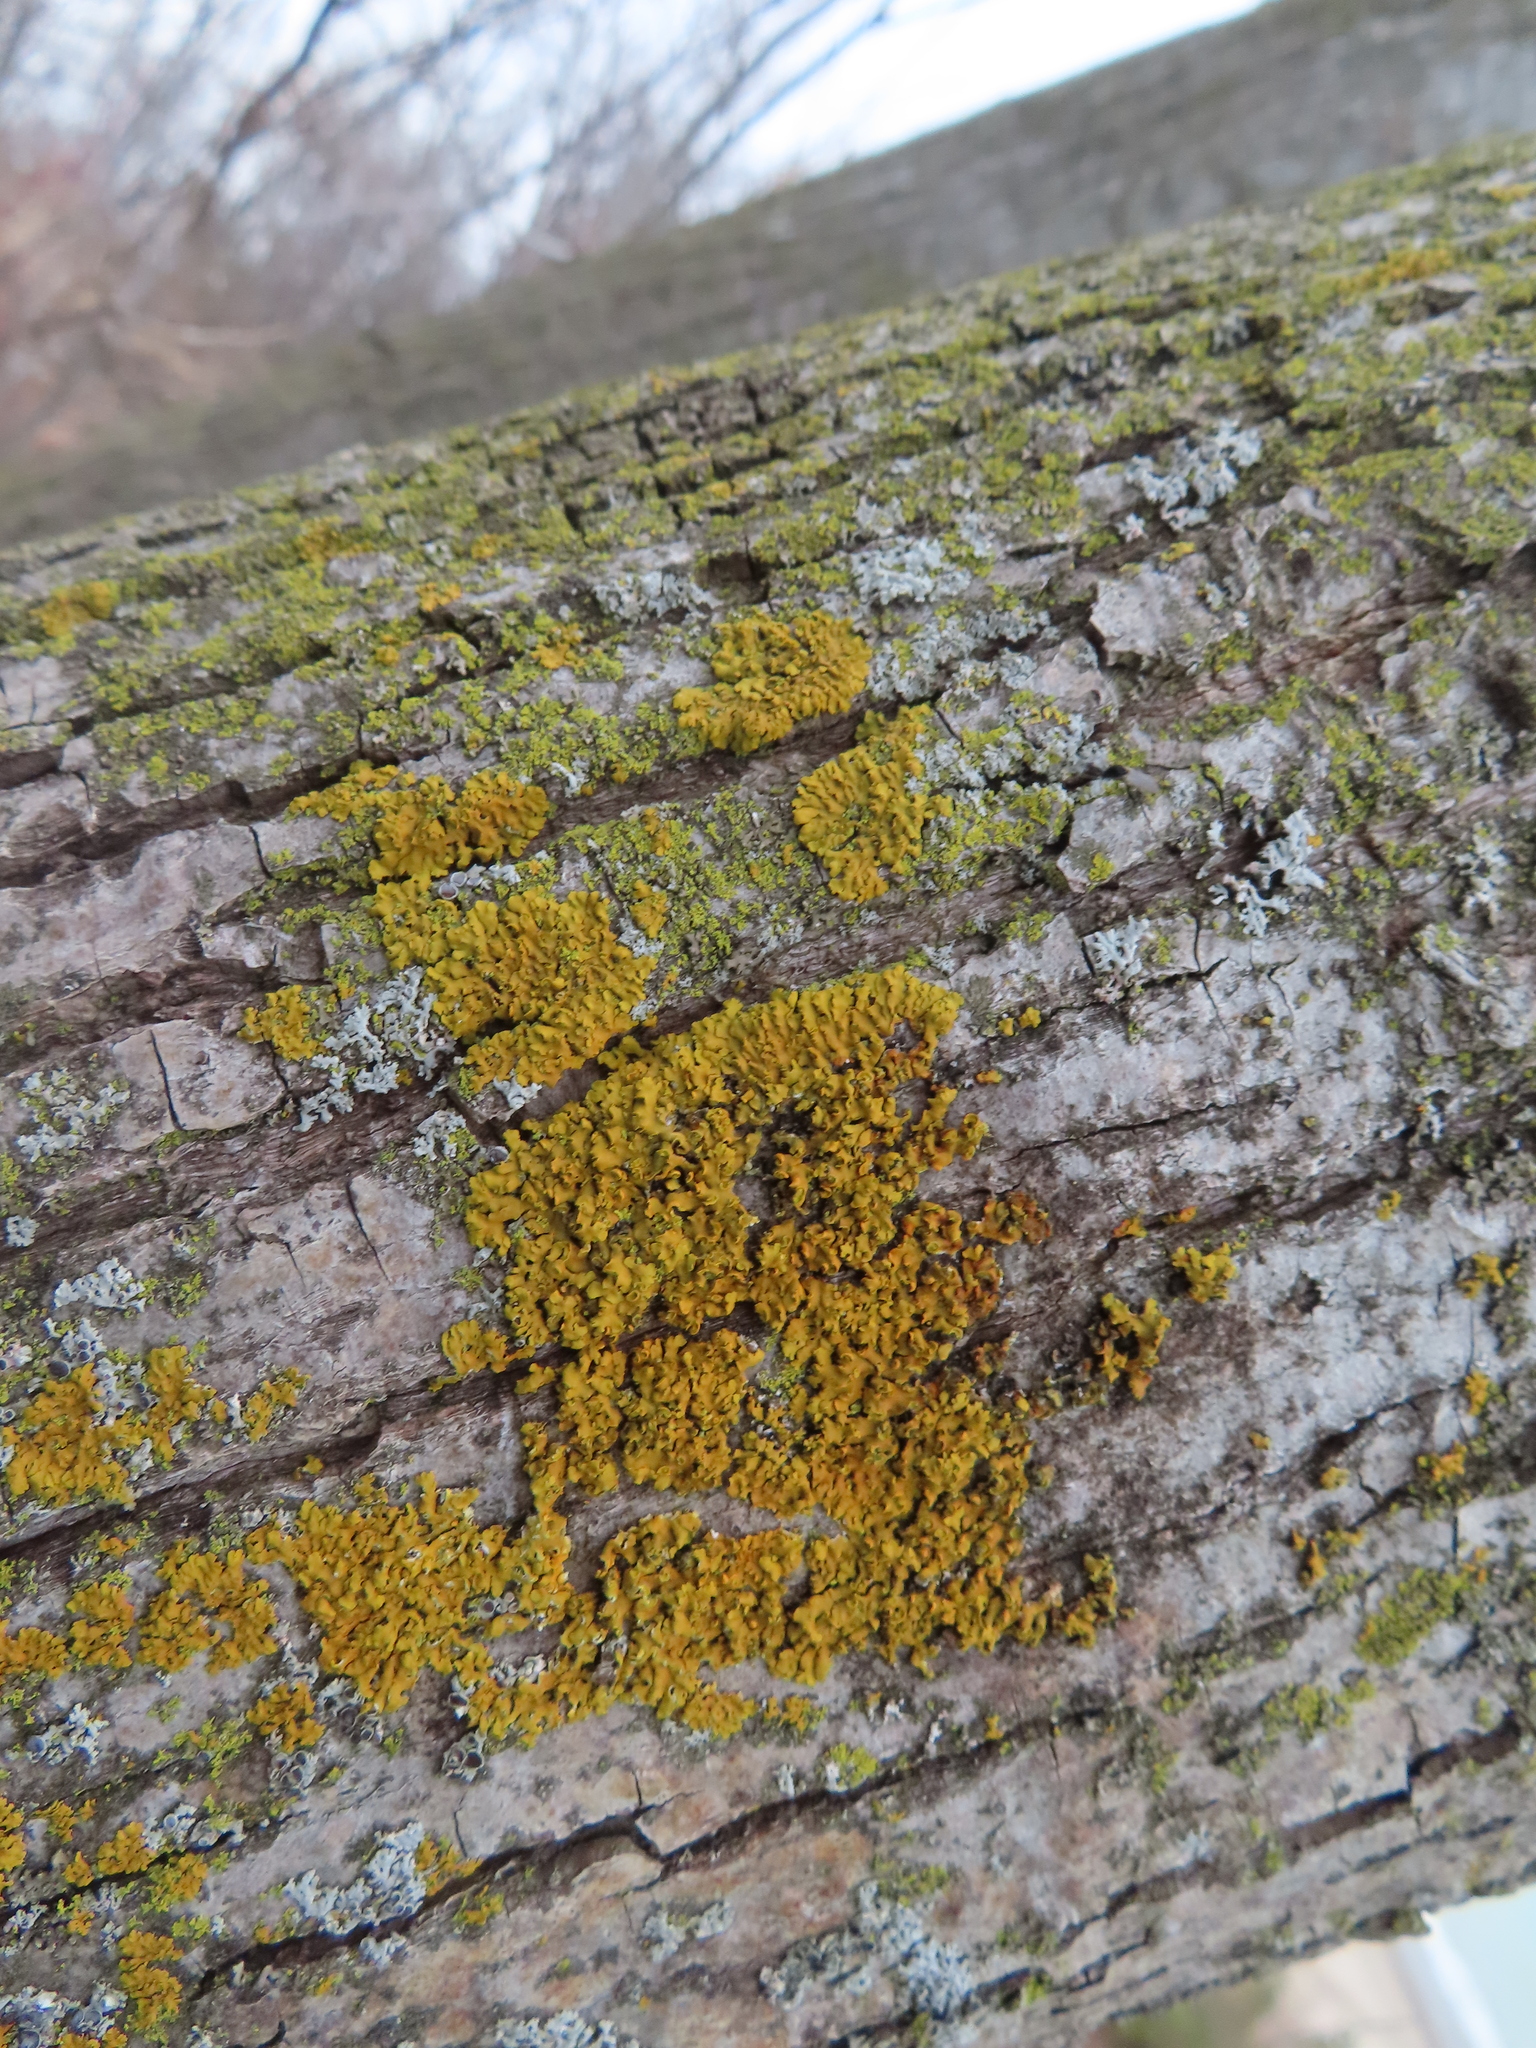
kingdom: Fungi
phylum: Ascomycota
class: Lecanoromycetes
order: Teloschistales
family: Teloschistaceae
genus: Oxneria
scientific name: Oxneria fallax
